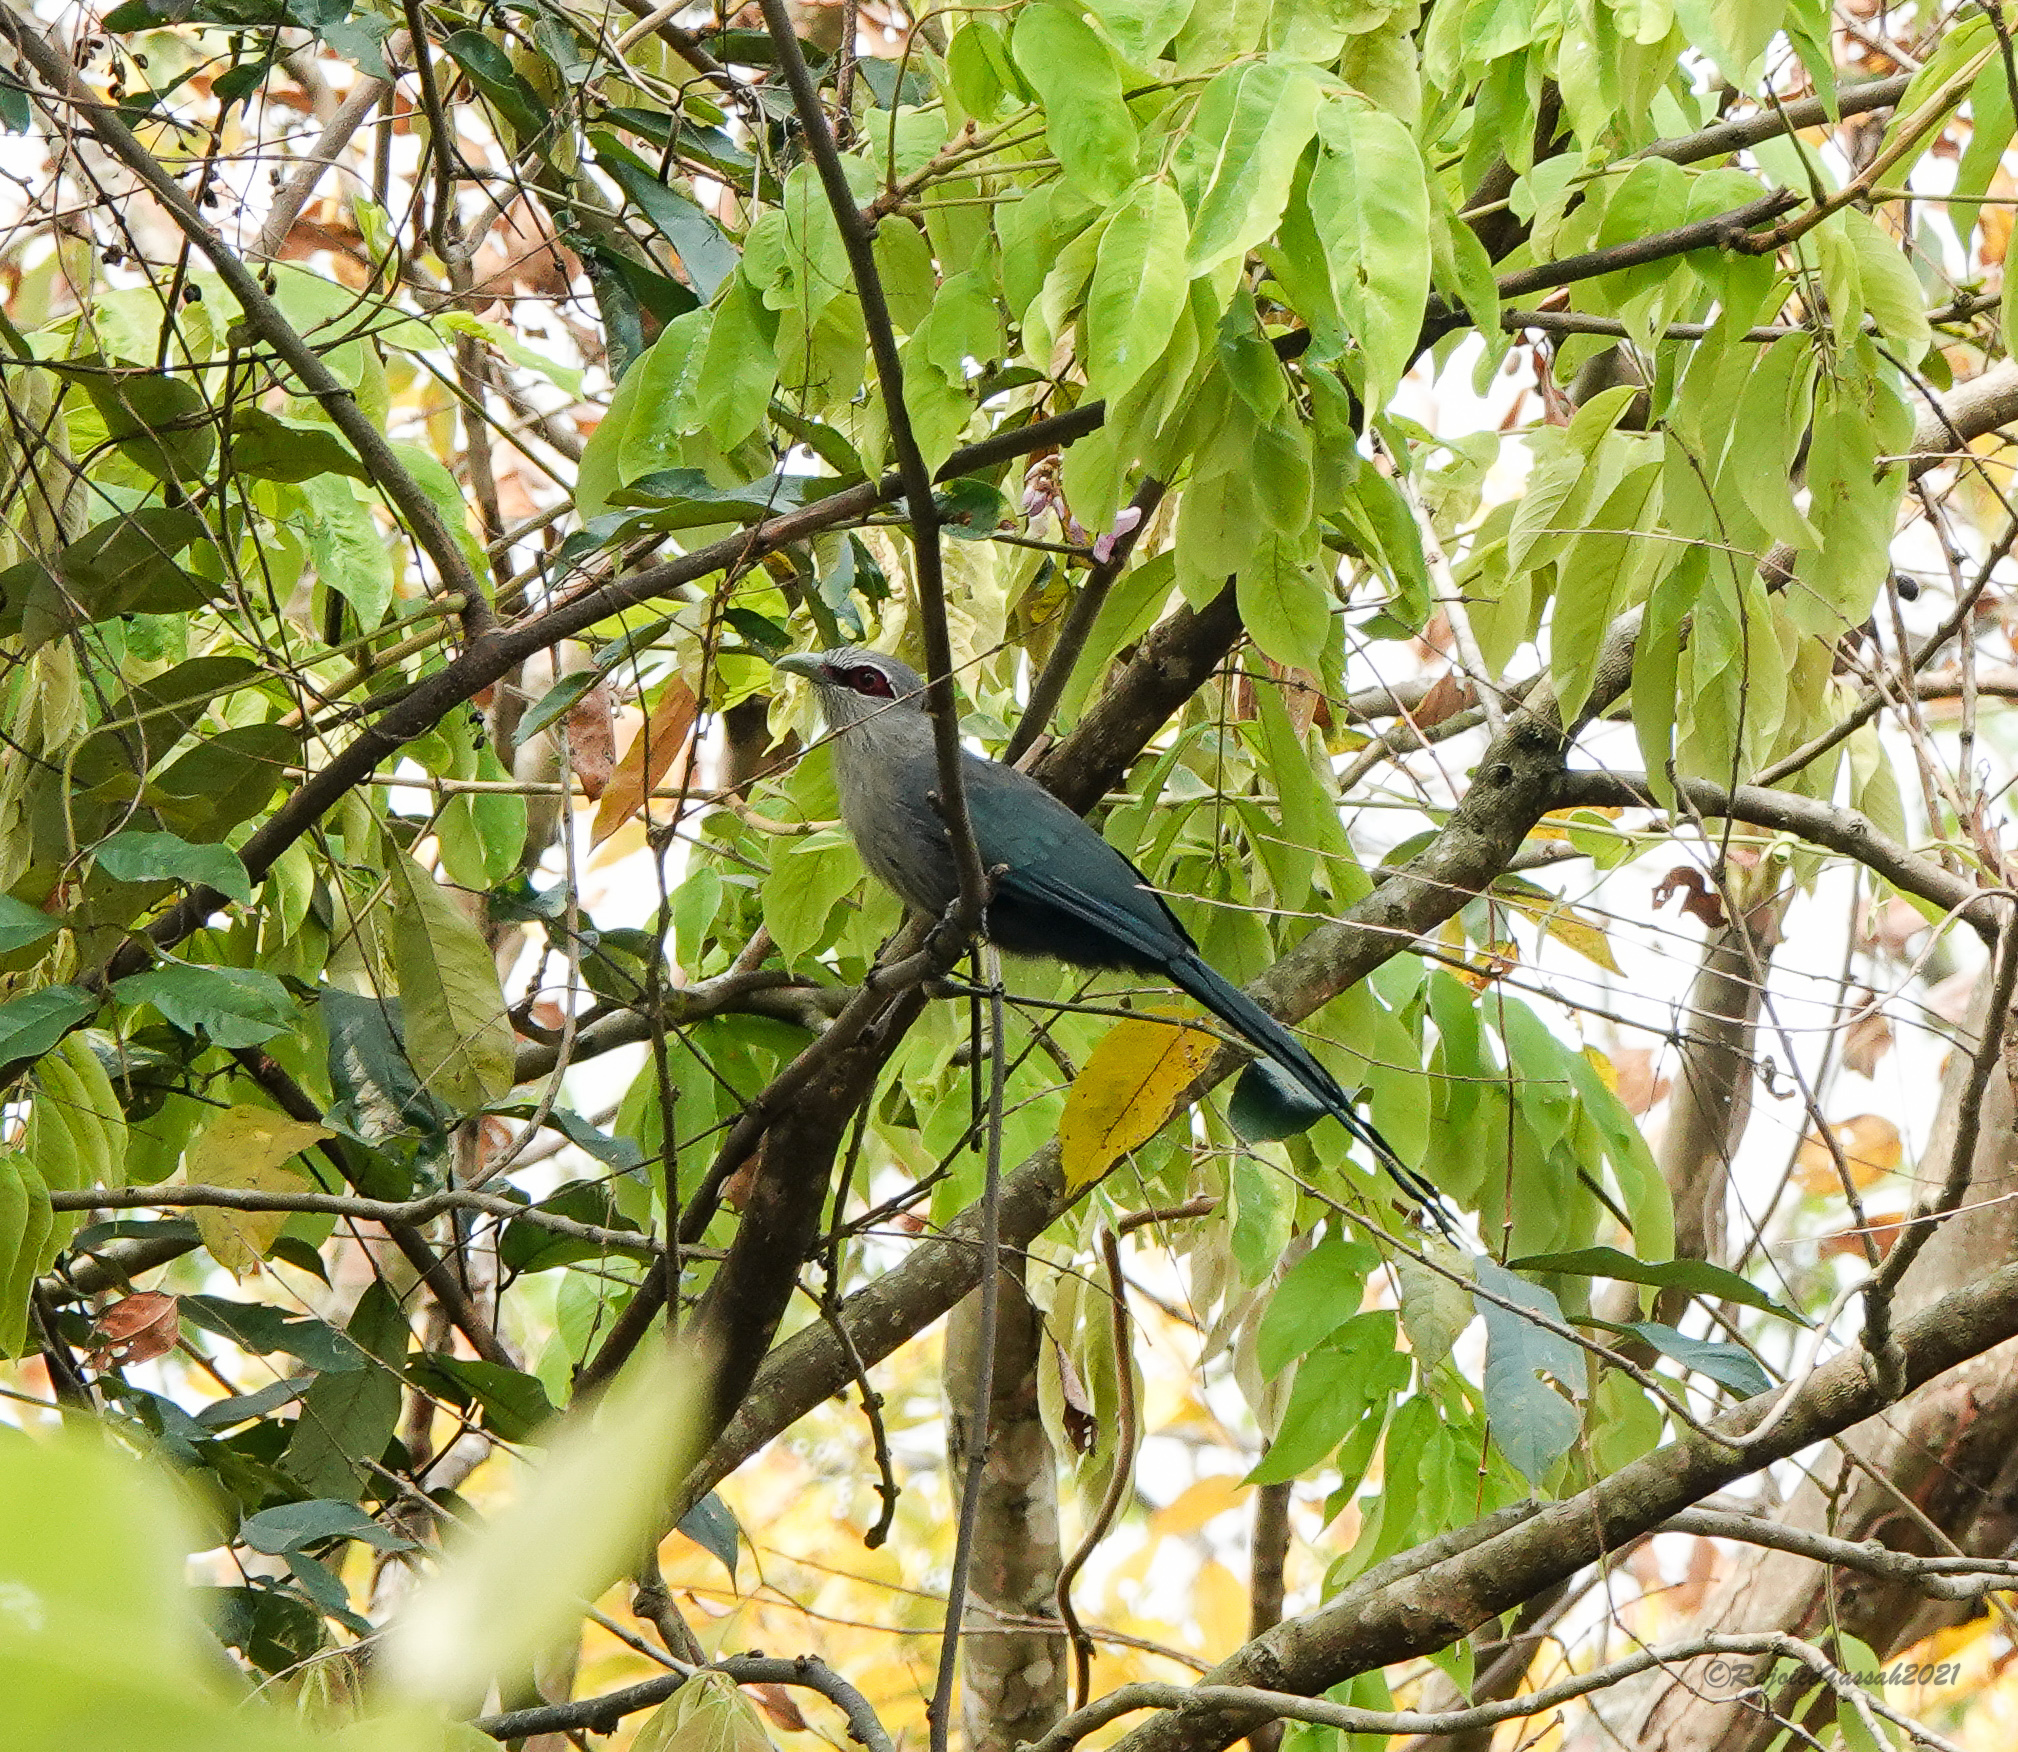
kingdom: Animalia
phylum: Chordata
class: Aves
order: Cuculiformes
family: Cuculidae
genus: Rhopodytes
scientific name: Rhopodytes tristis
